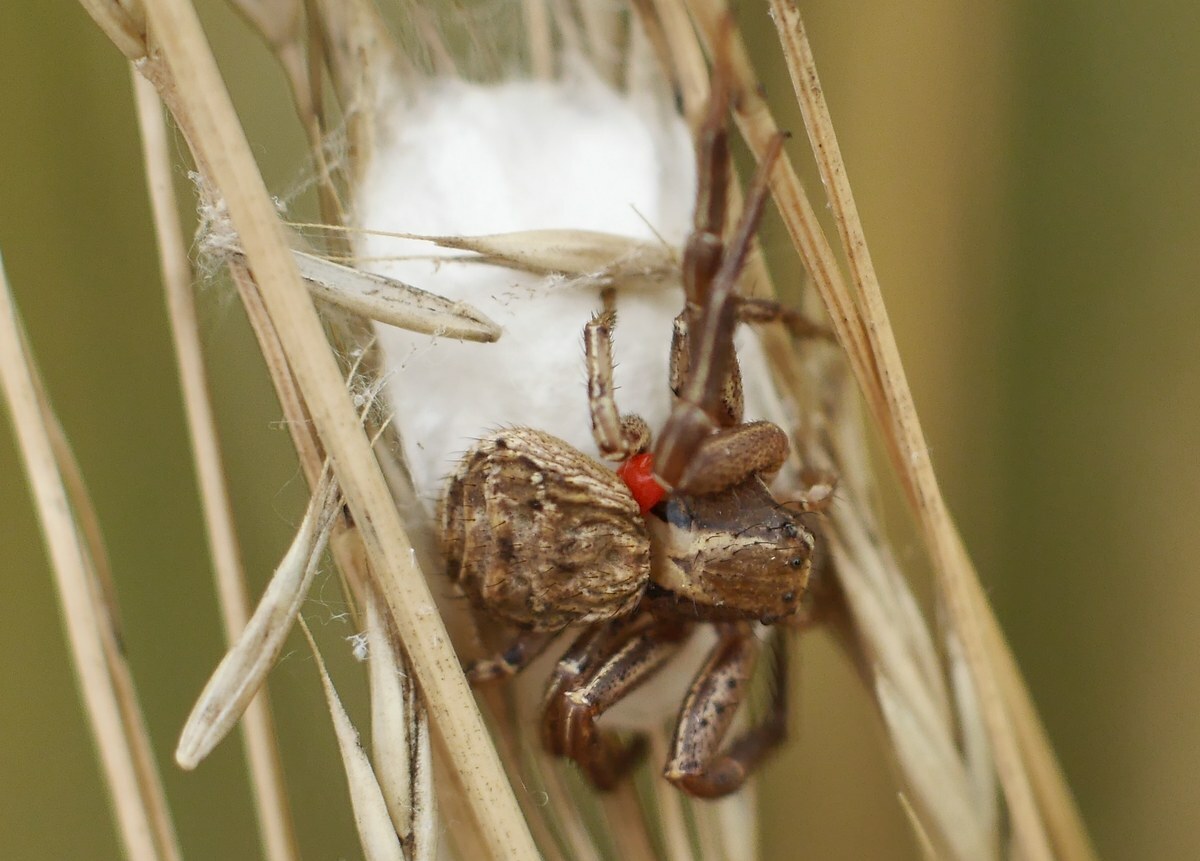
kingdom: Animalia
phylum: Arthropoda
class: Arachnida
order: Araneae
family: Thomisidae
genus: Xysticus
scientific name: Xysticus
